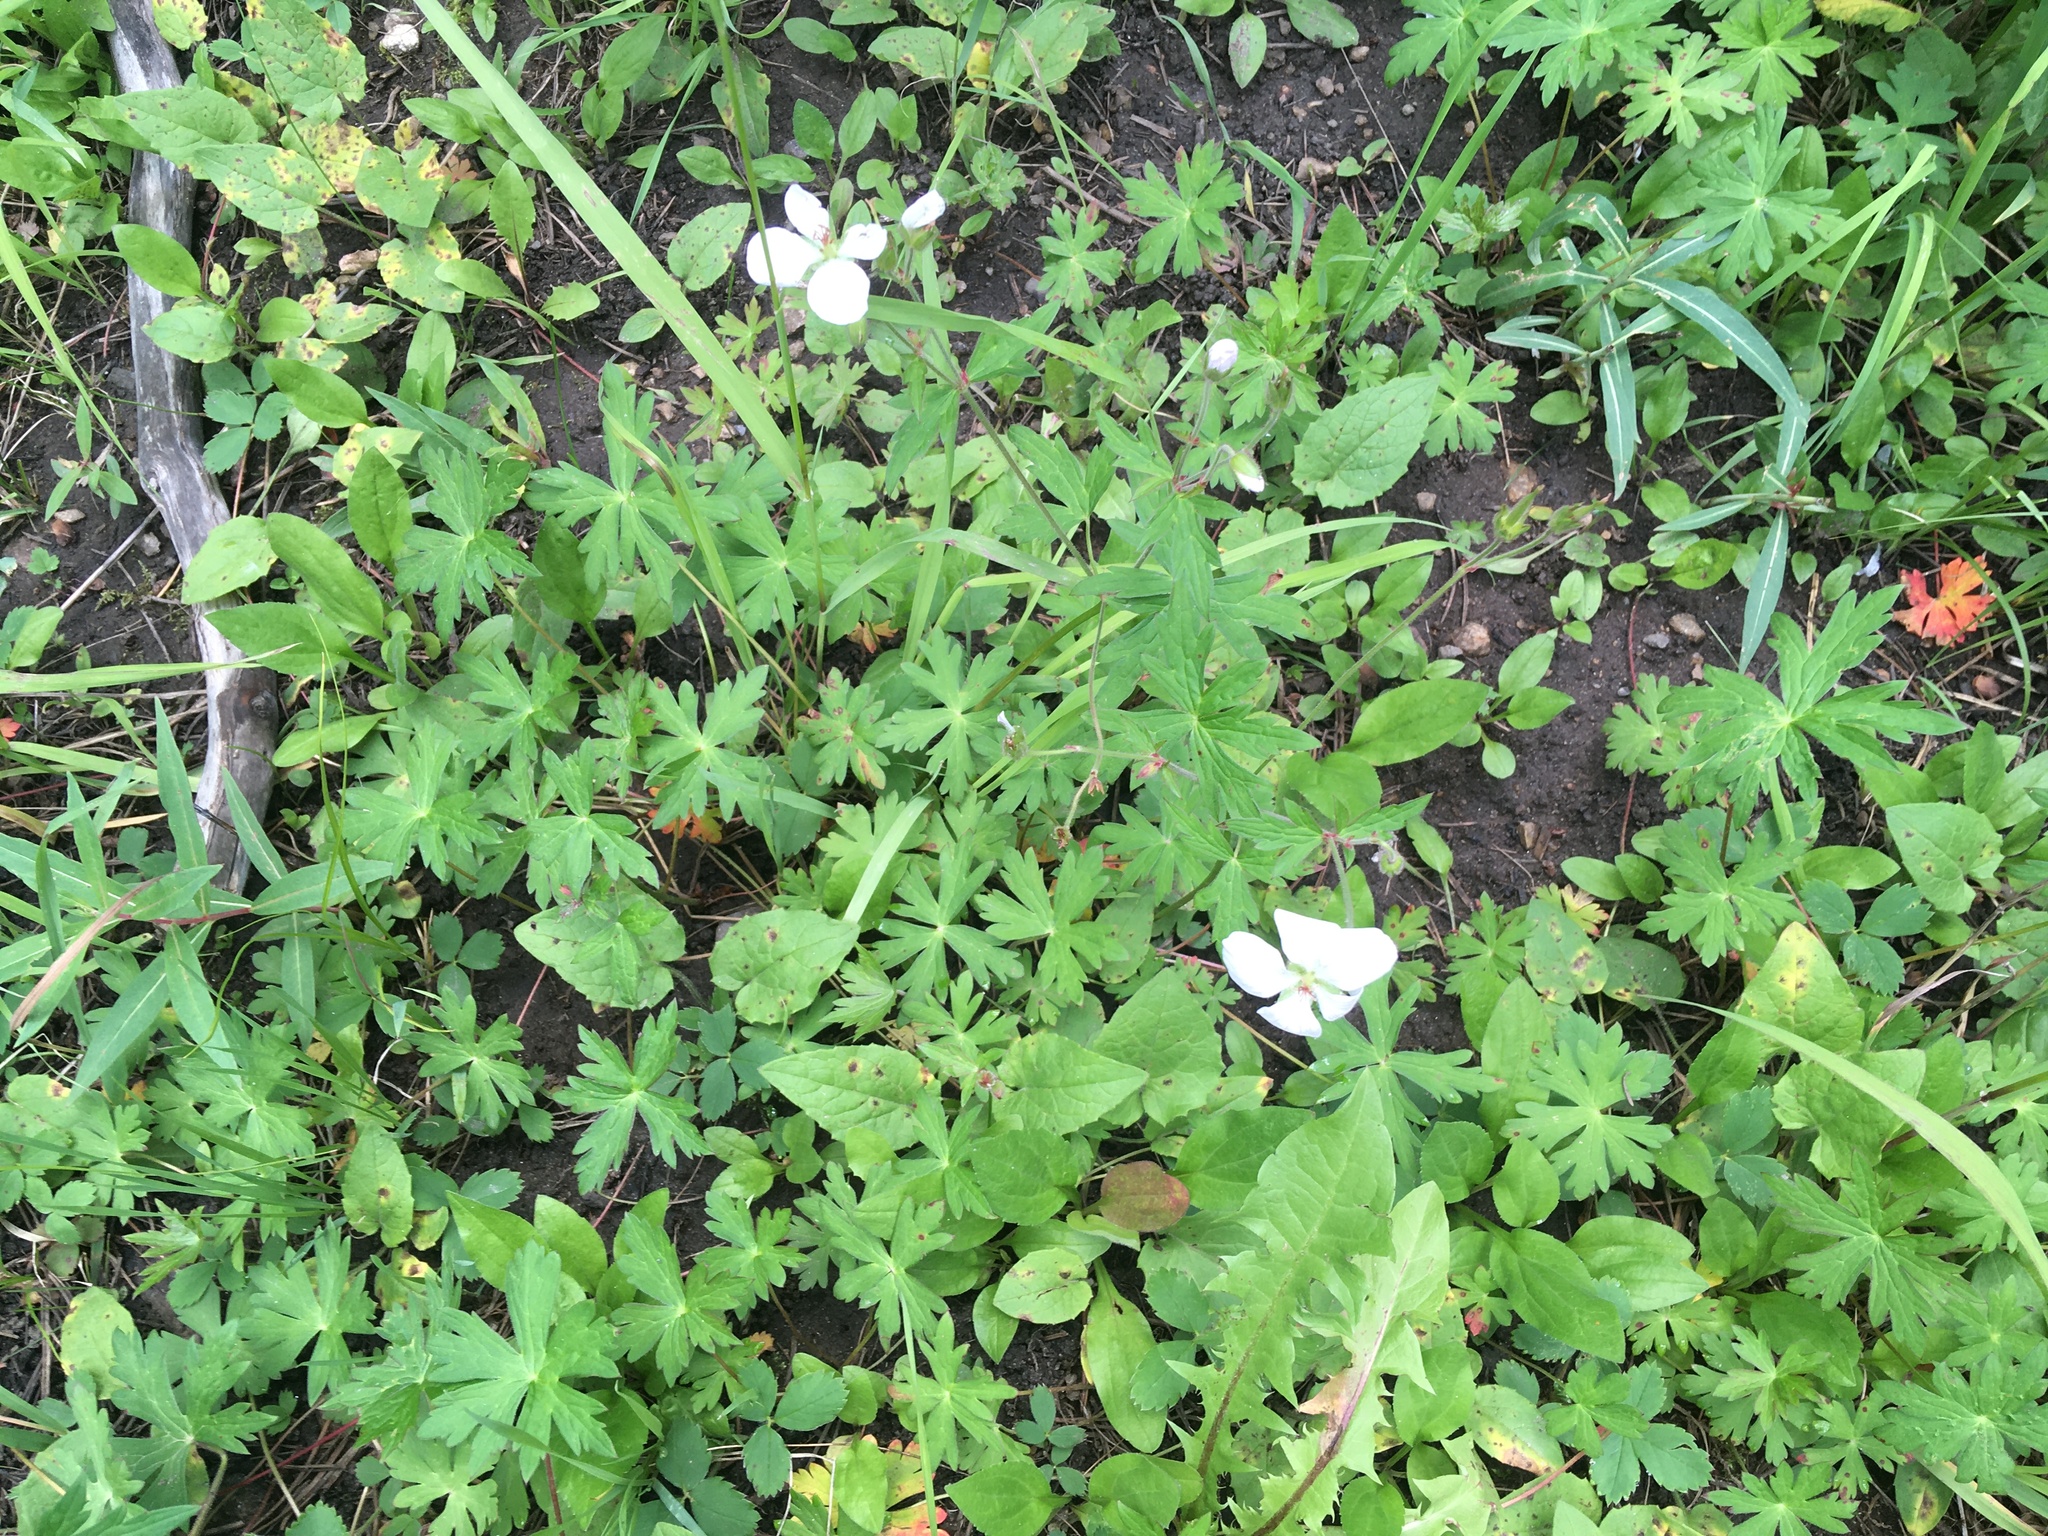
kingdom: Plantae
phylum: Tracheophyta
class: Magnoliopsida
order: Geraniales
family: Geraniaceae
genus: Geranium
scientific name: Geranium richardsonii
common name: Richardson's crane's-bill
